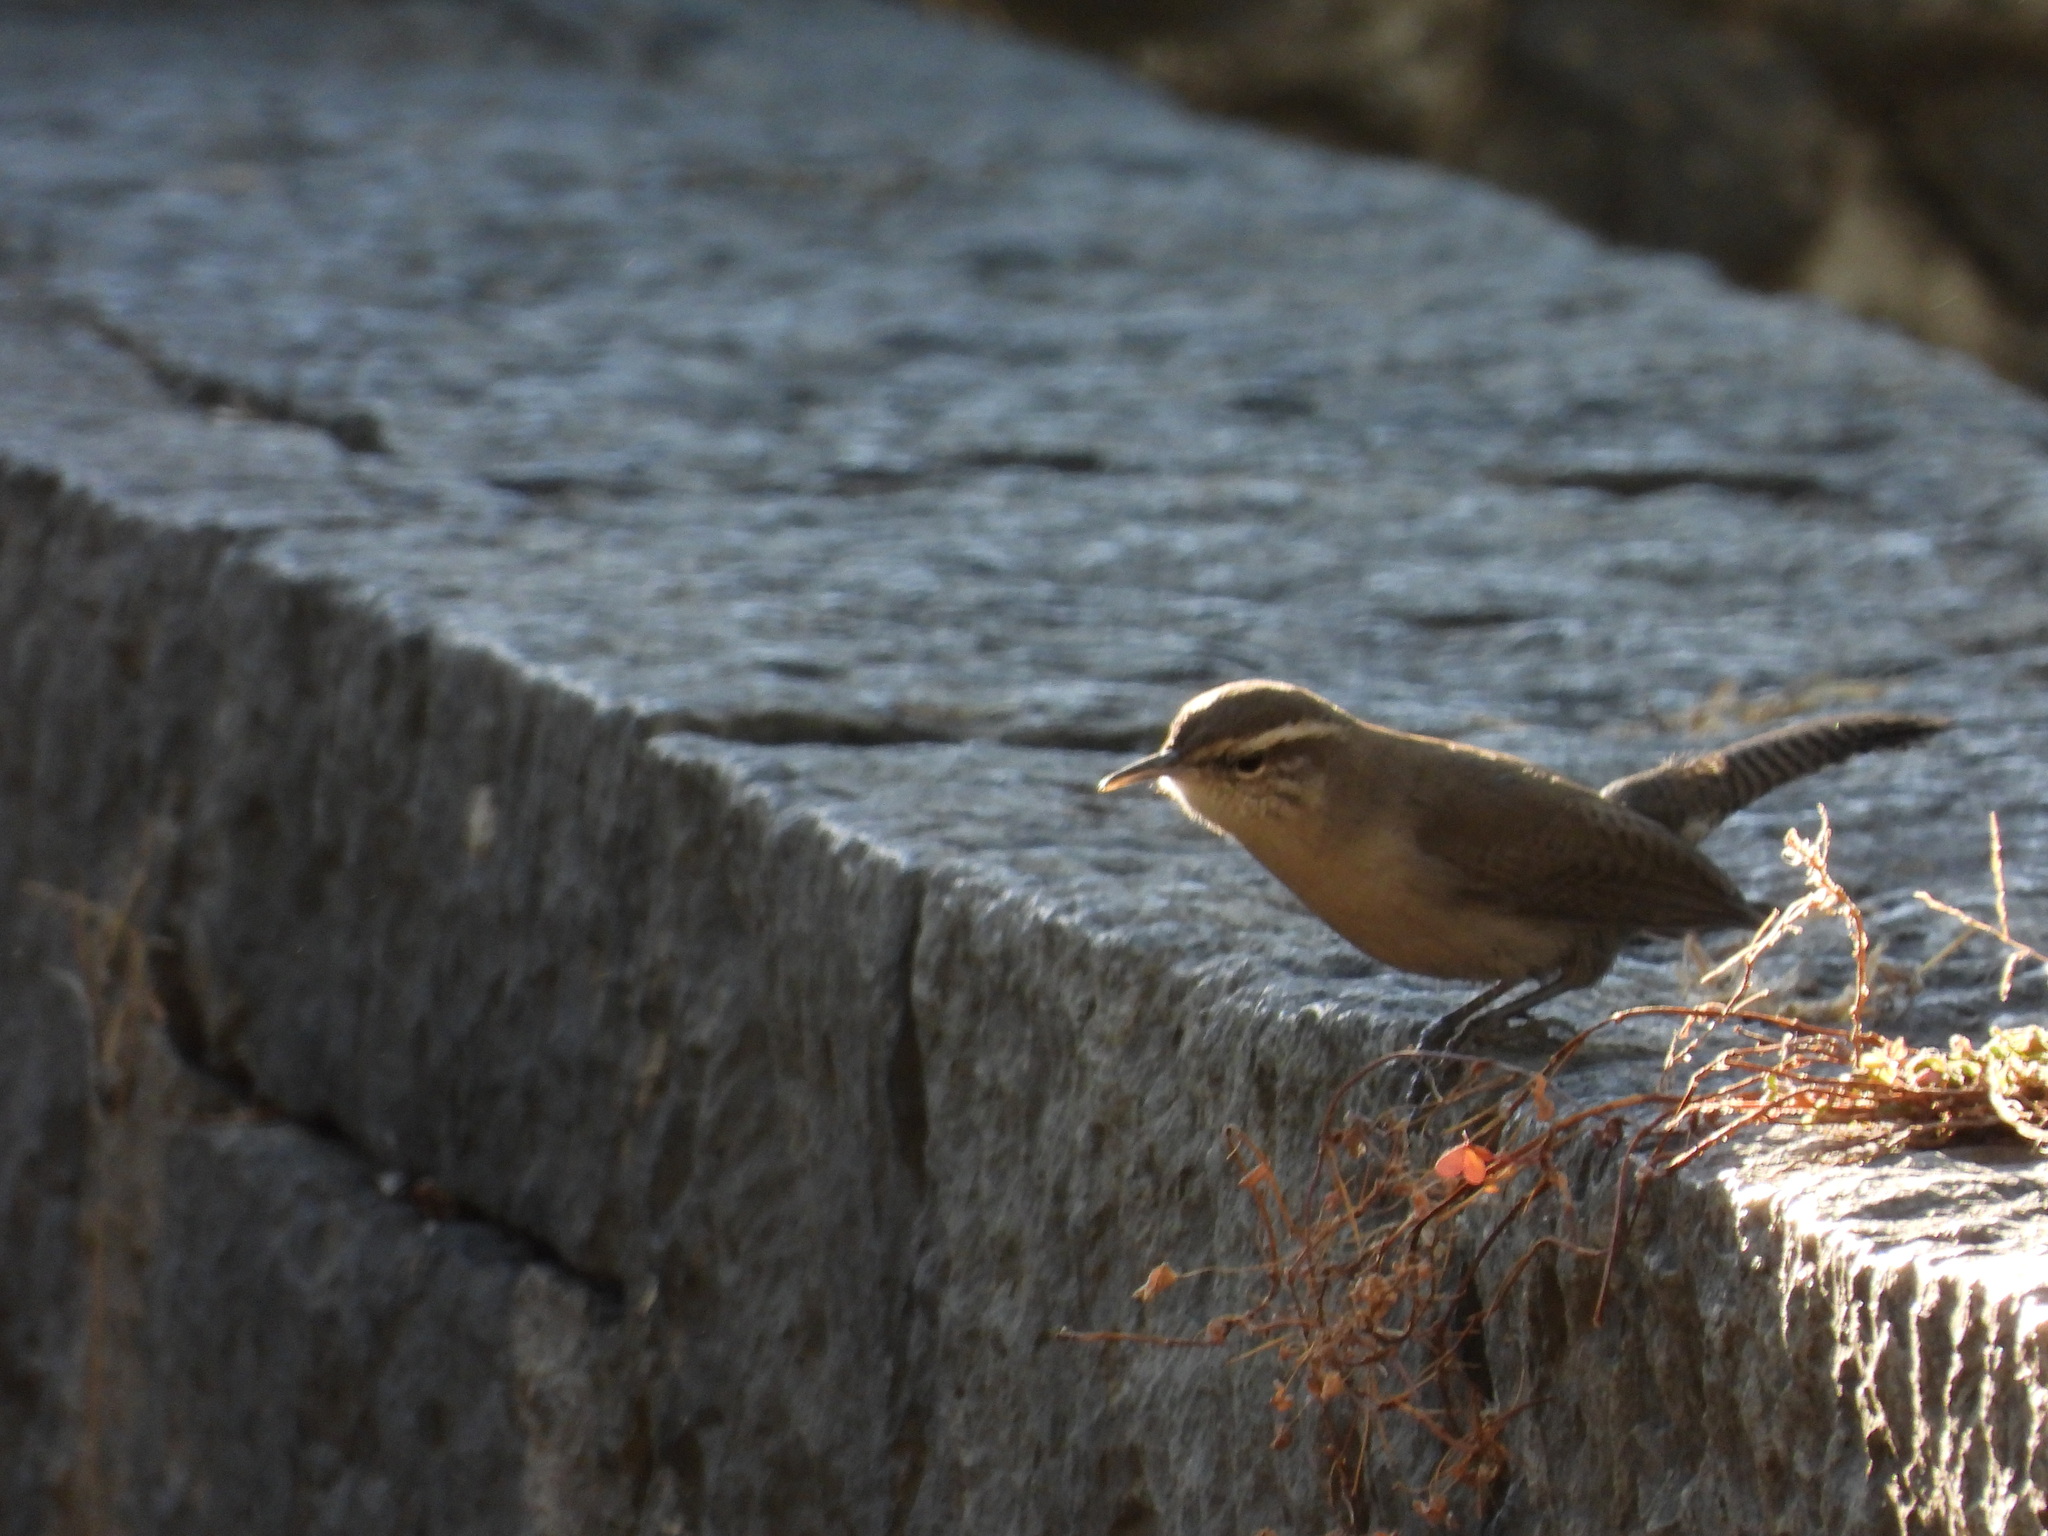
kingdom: Animalia
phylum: Chordata
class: Aves
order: Passeriformes
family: Troglodytidae
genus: Thryomanes
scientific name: Thryomanes bewickii
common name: Bewick's wren
